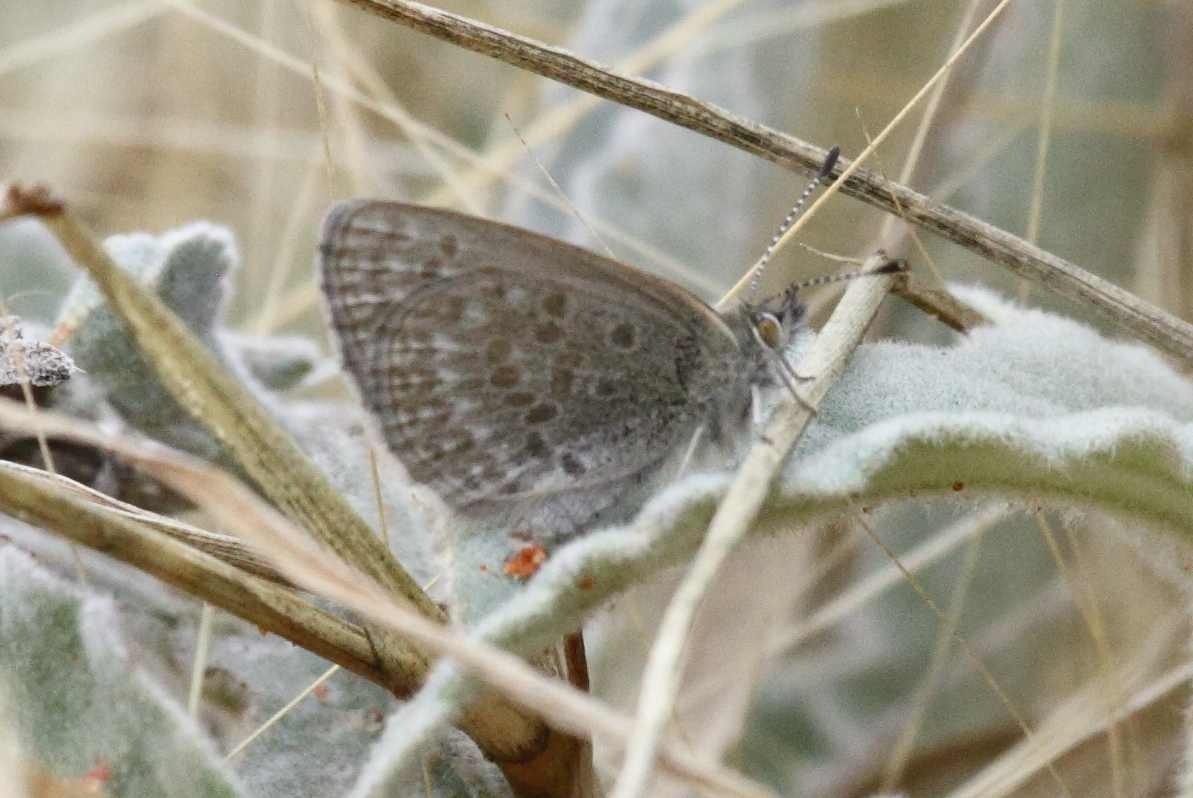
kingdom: Animalia
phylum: Arthropoda
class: Insecta
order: Lepidoptera
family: Lycaenidae
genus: Zizina
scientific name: Zizina labradus
